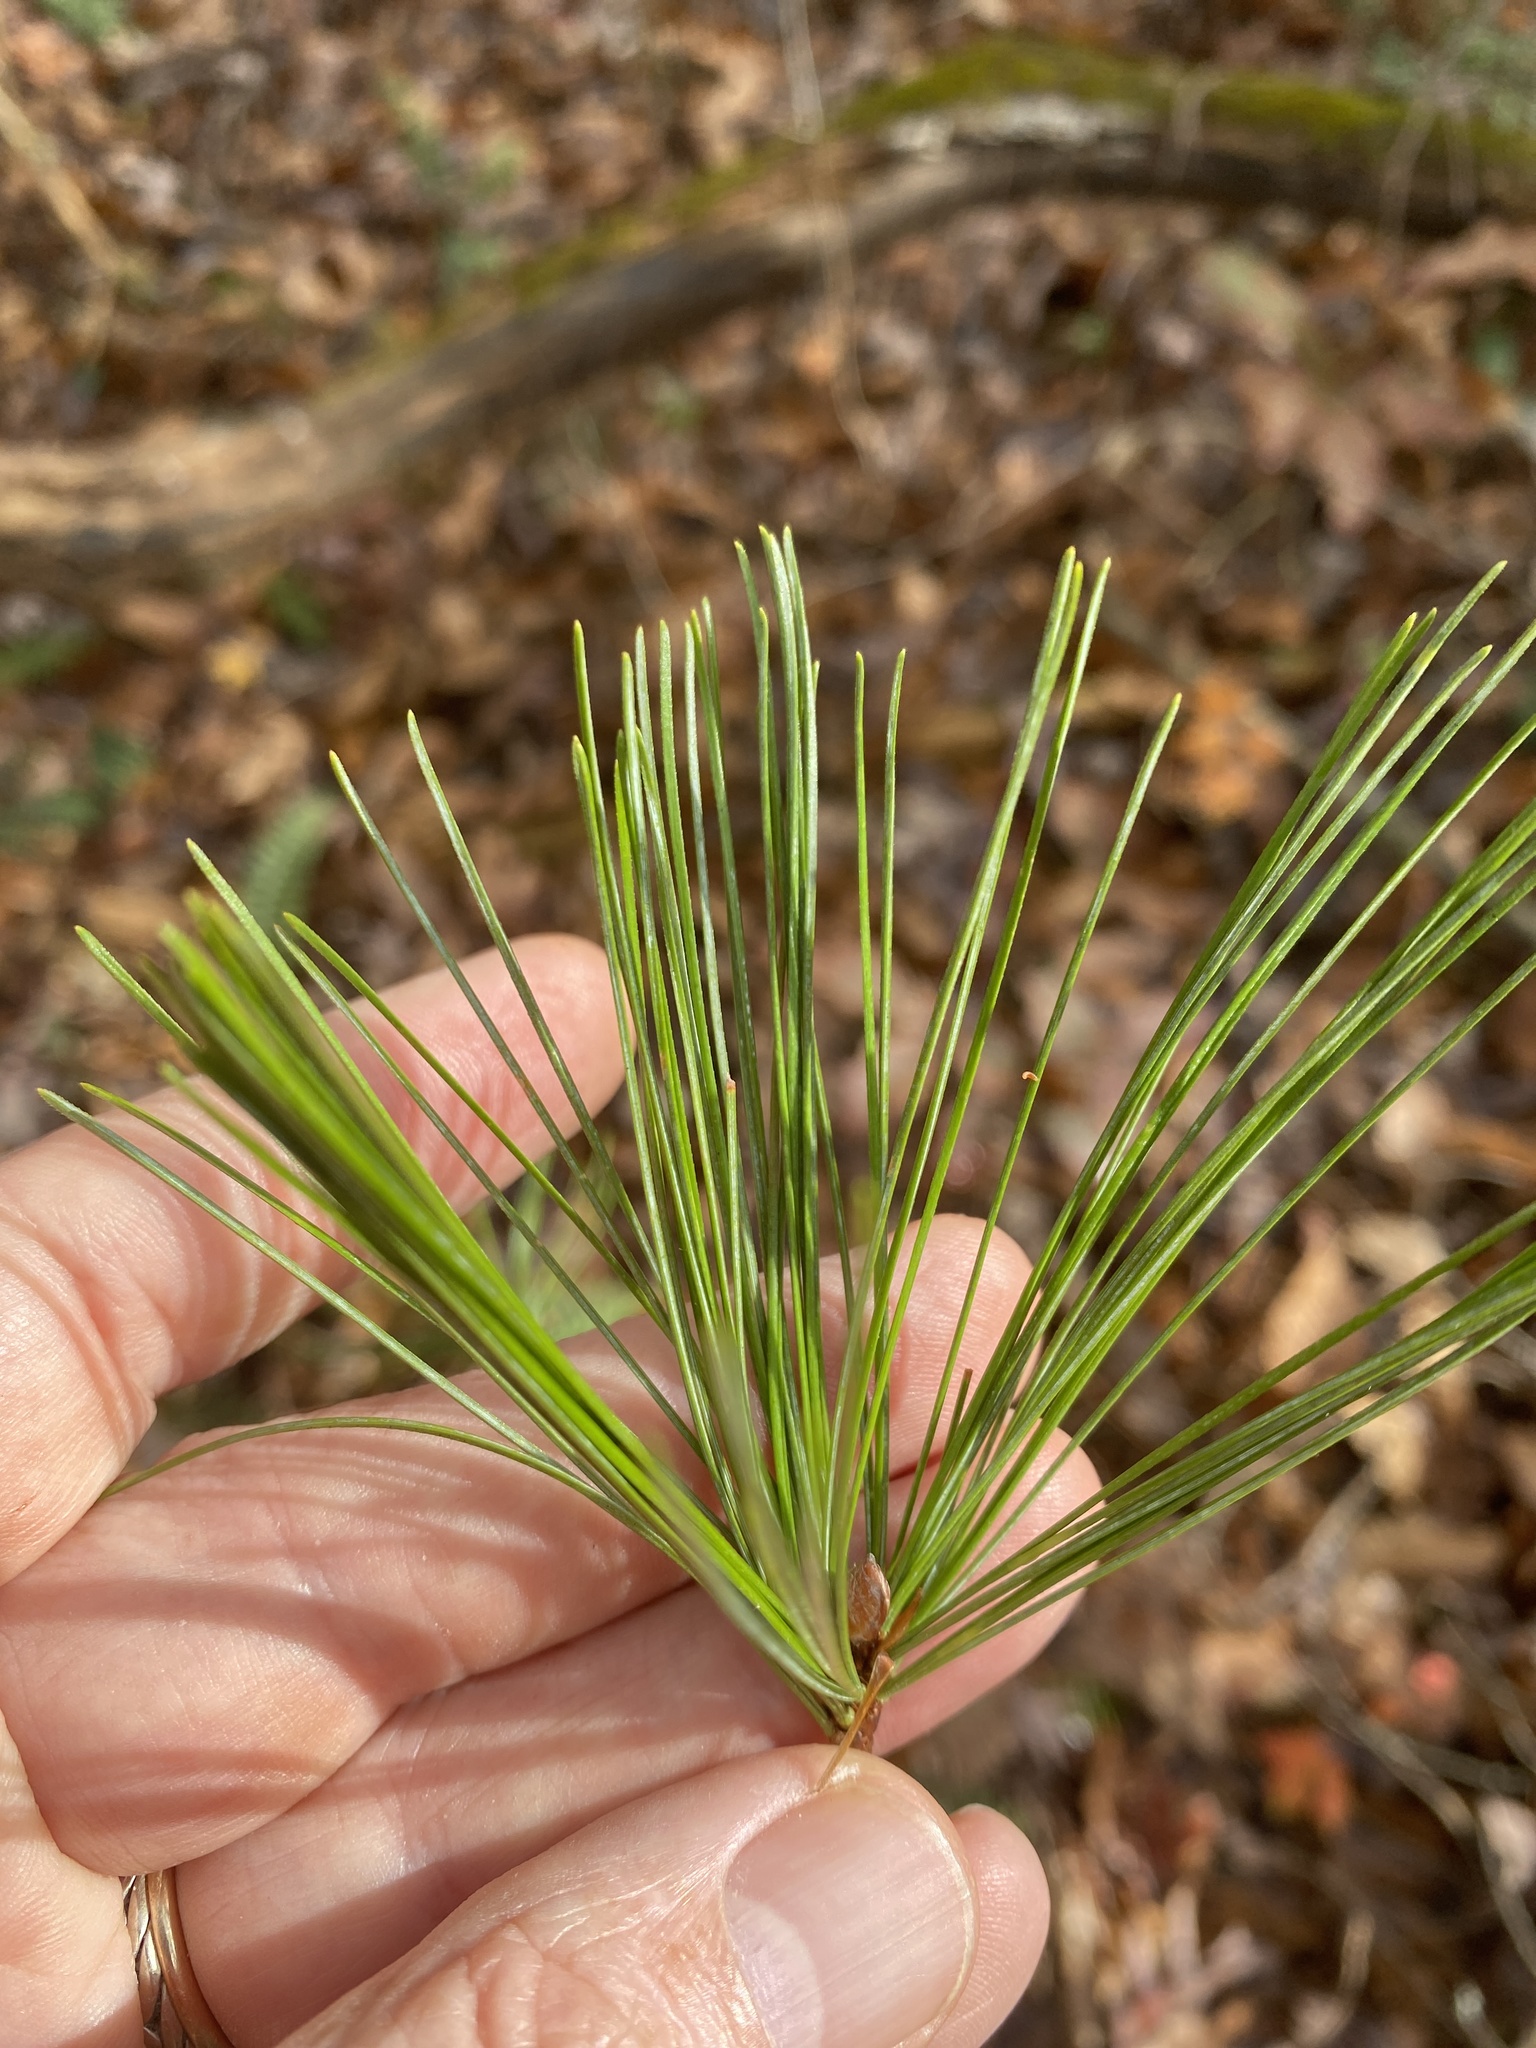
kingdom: Plantae
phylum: Tracheophyta
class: Pinopsida
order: Pinales
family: Pinaceae
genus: Pinus
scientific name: Pinus strobus
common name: Weymouth pine
